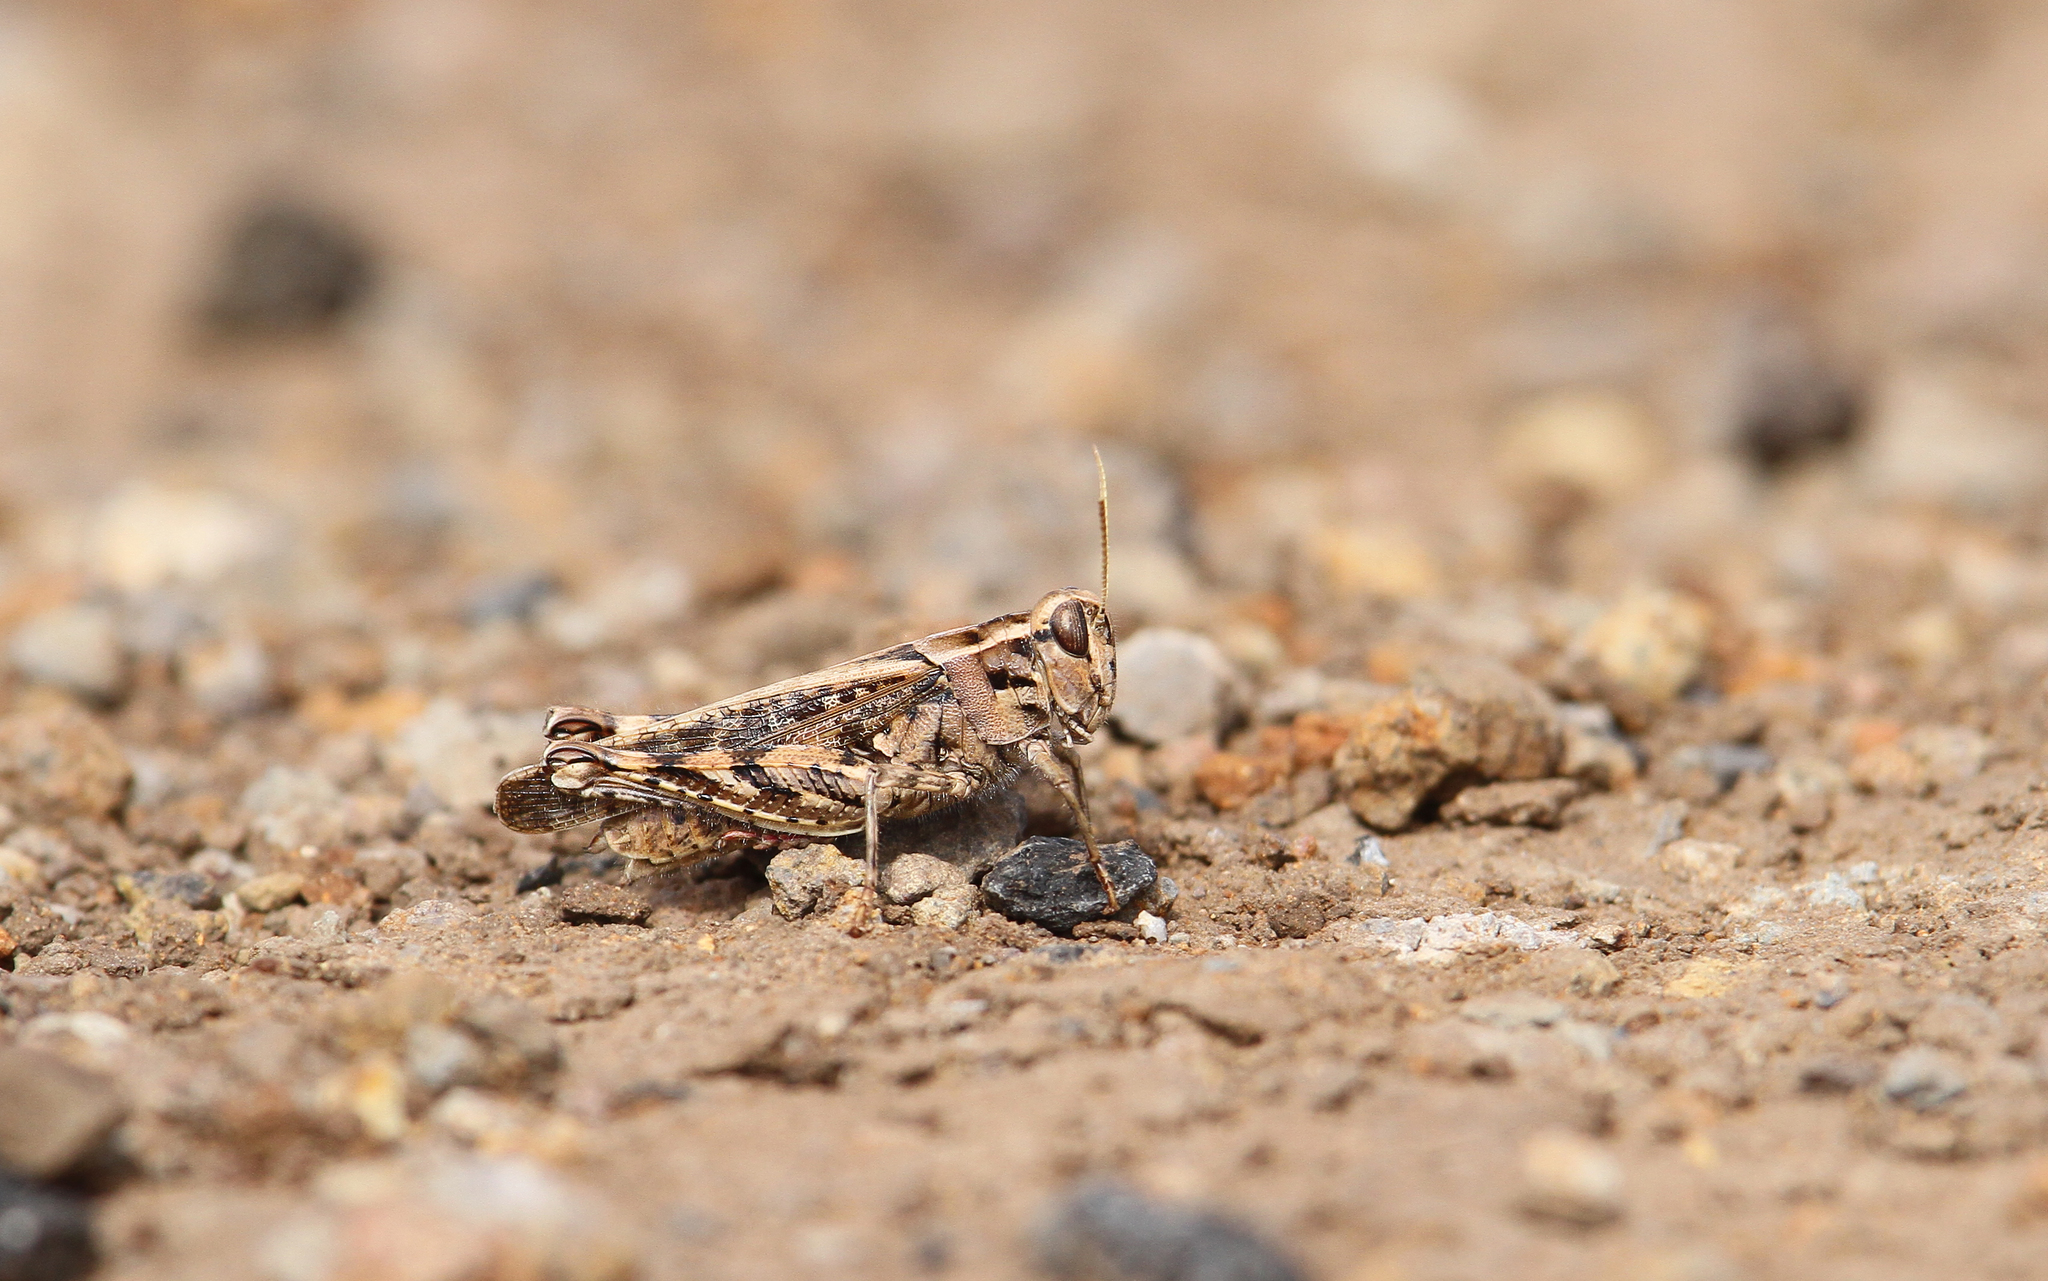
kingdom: Animalia
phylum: Arthropoda
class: Insecta
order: Orthoptera
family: Acrididae
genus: Calliptamus
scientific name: Calliptamus madeirae
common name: Madeira pincer grasshopper
